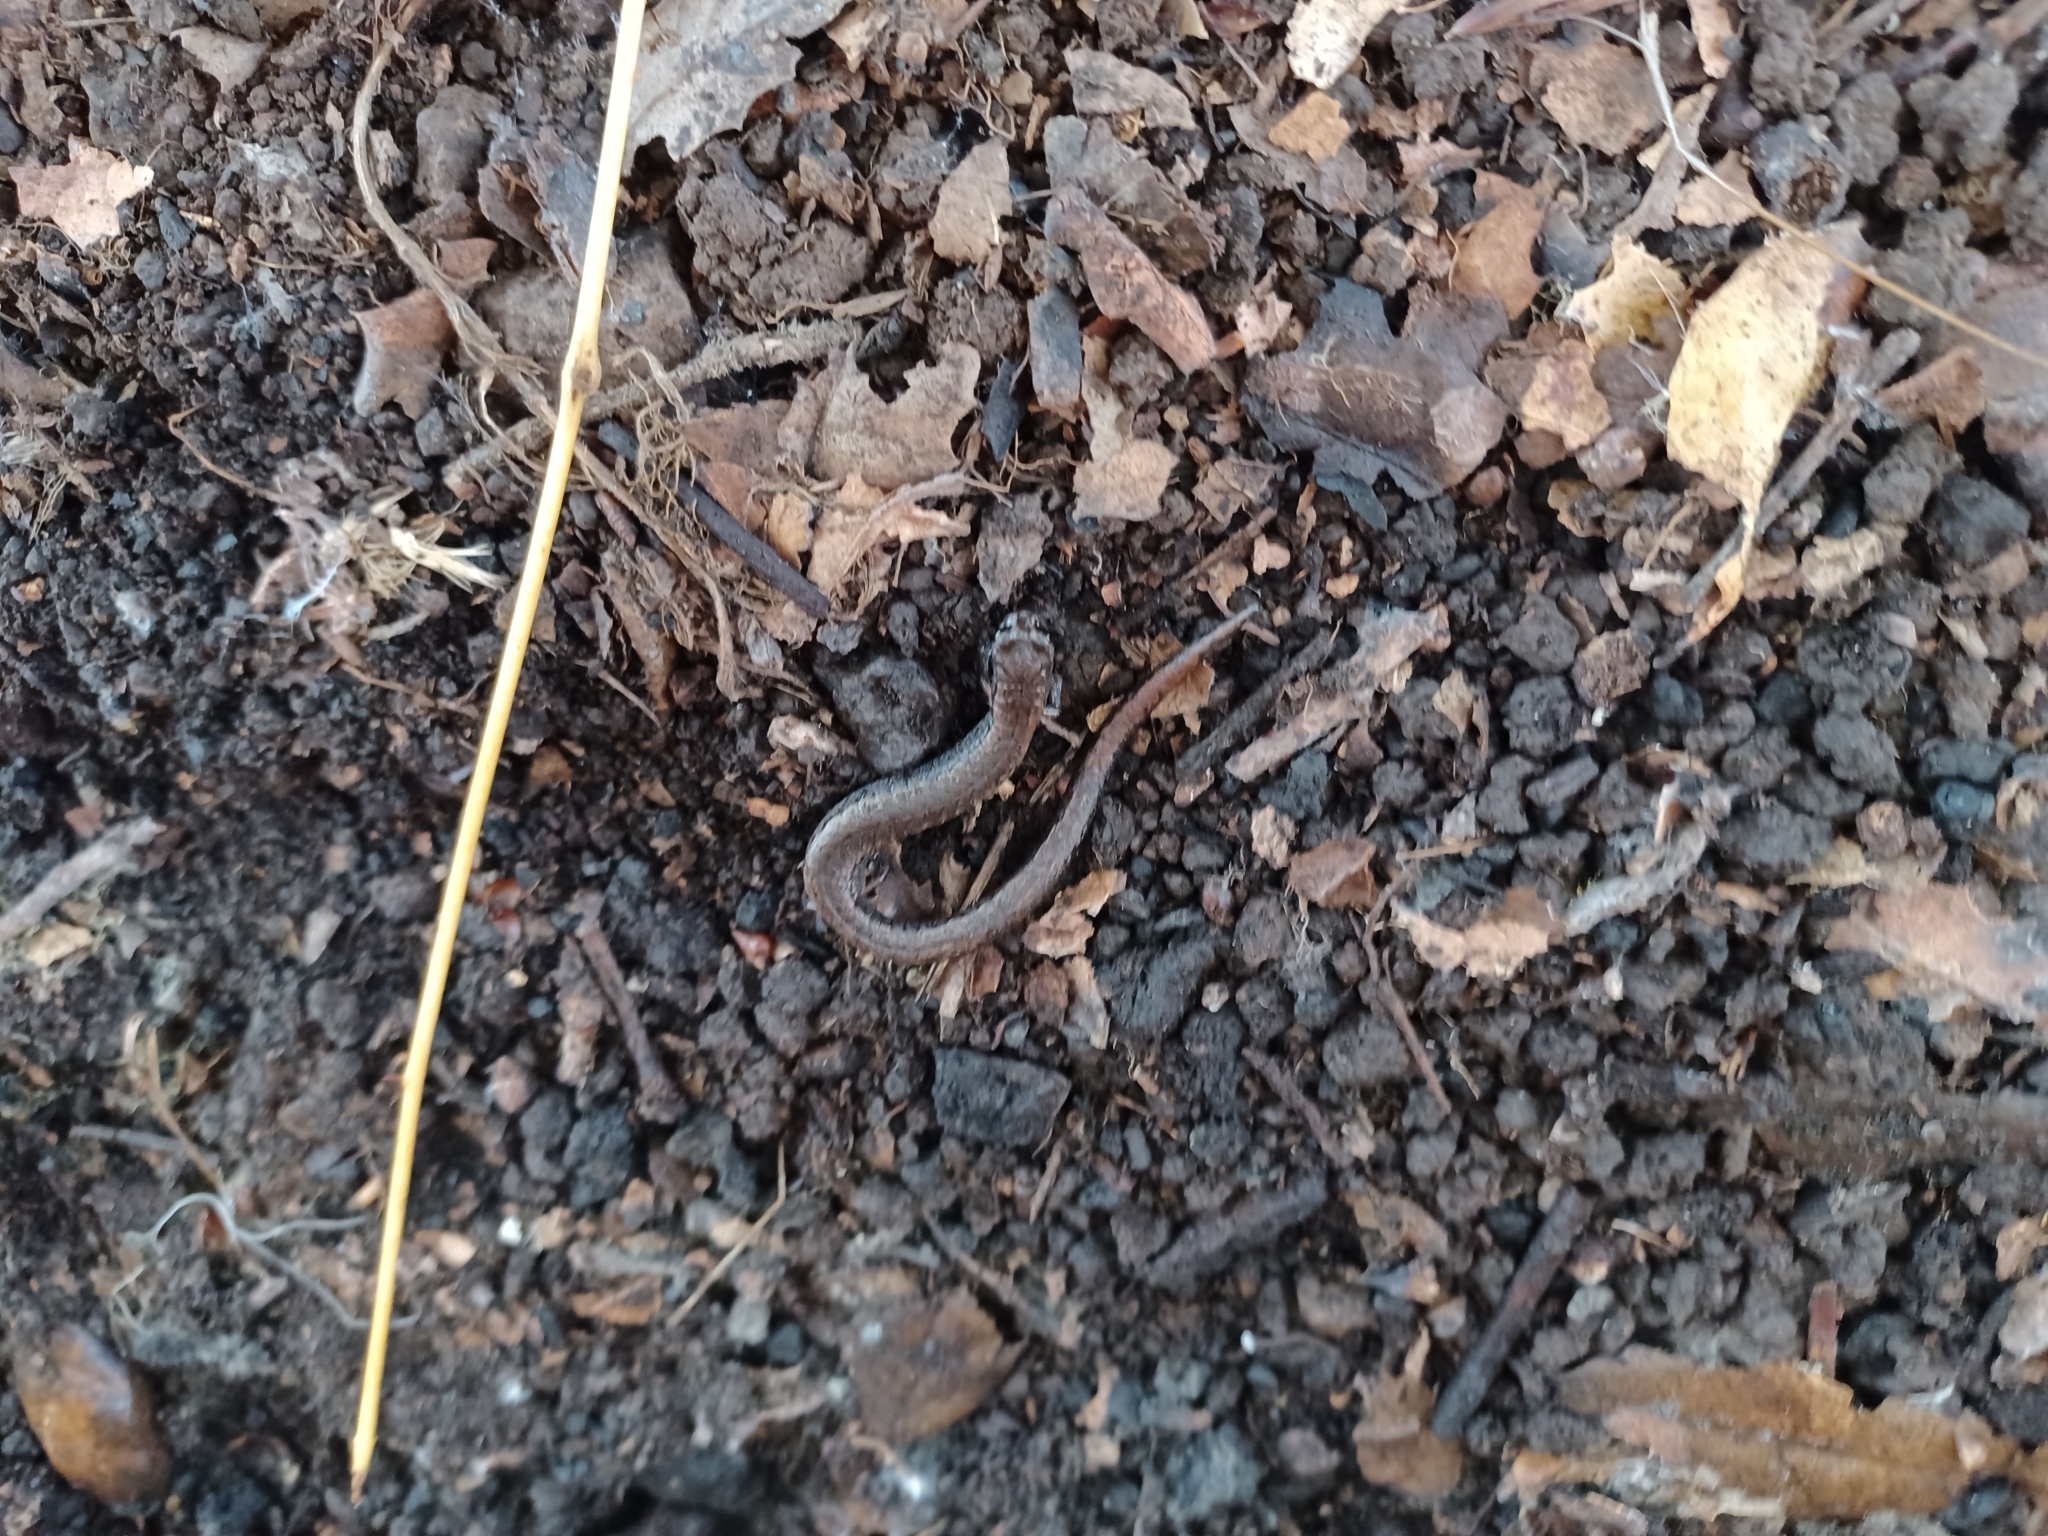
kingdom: Animalia
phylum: Chordata
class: Amphibia
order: Caudata
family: Plethodontidae
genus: Batrachoseps
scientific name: Batrachoseps attenuatus
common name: California slender salamander
